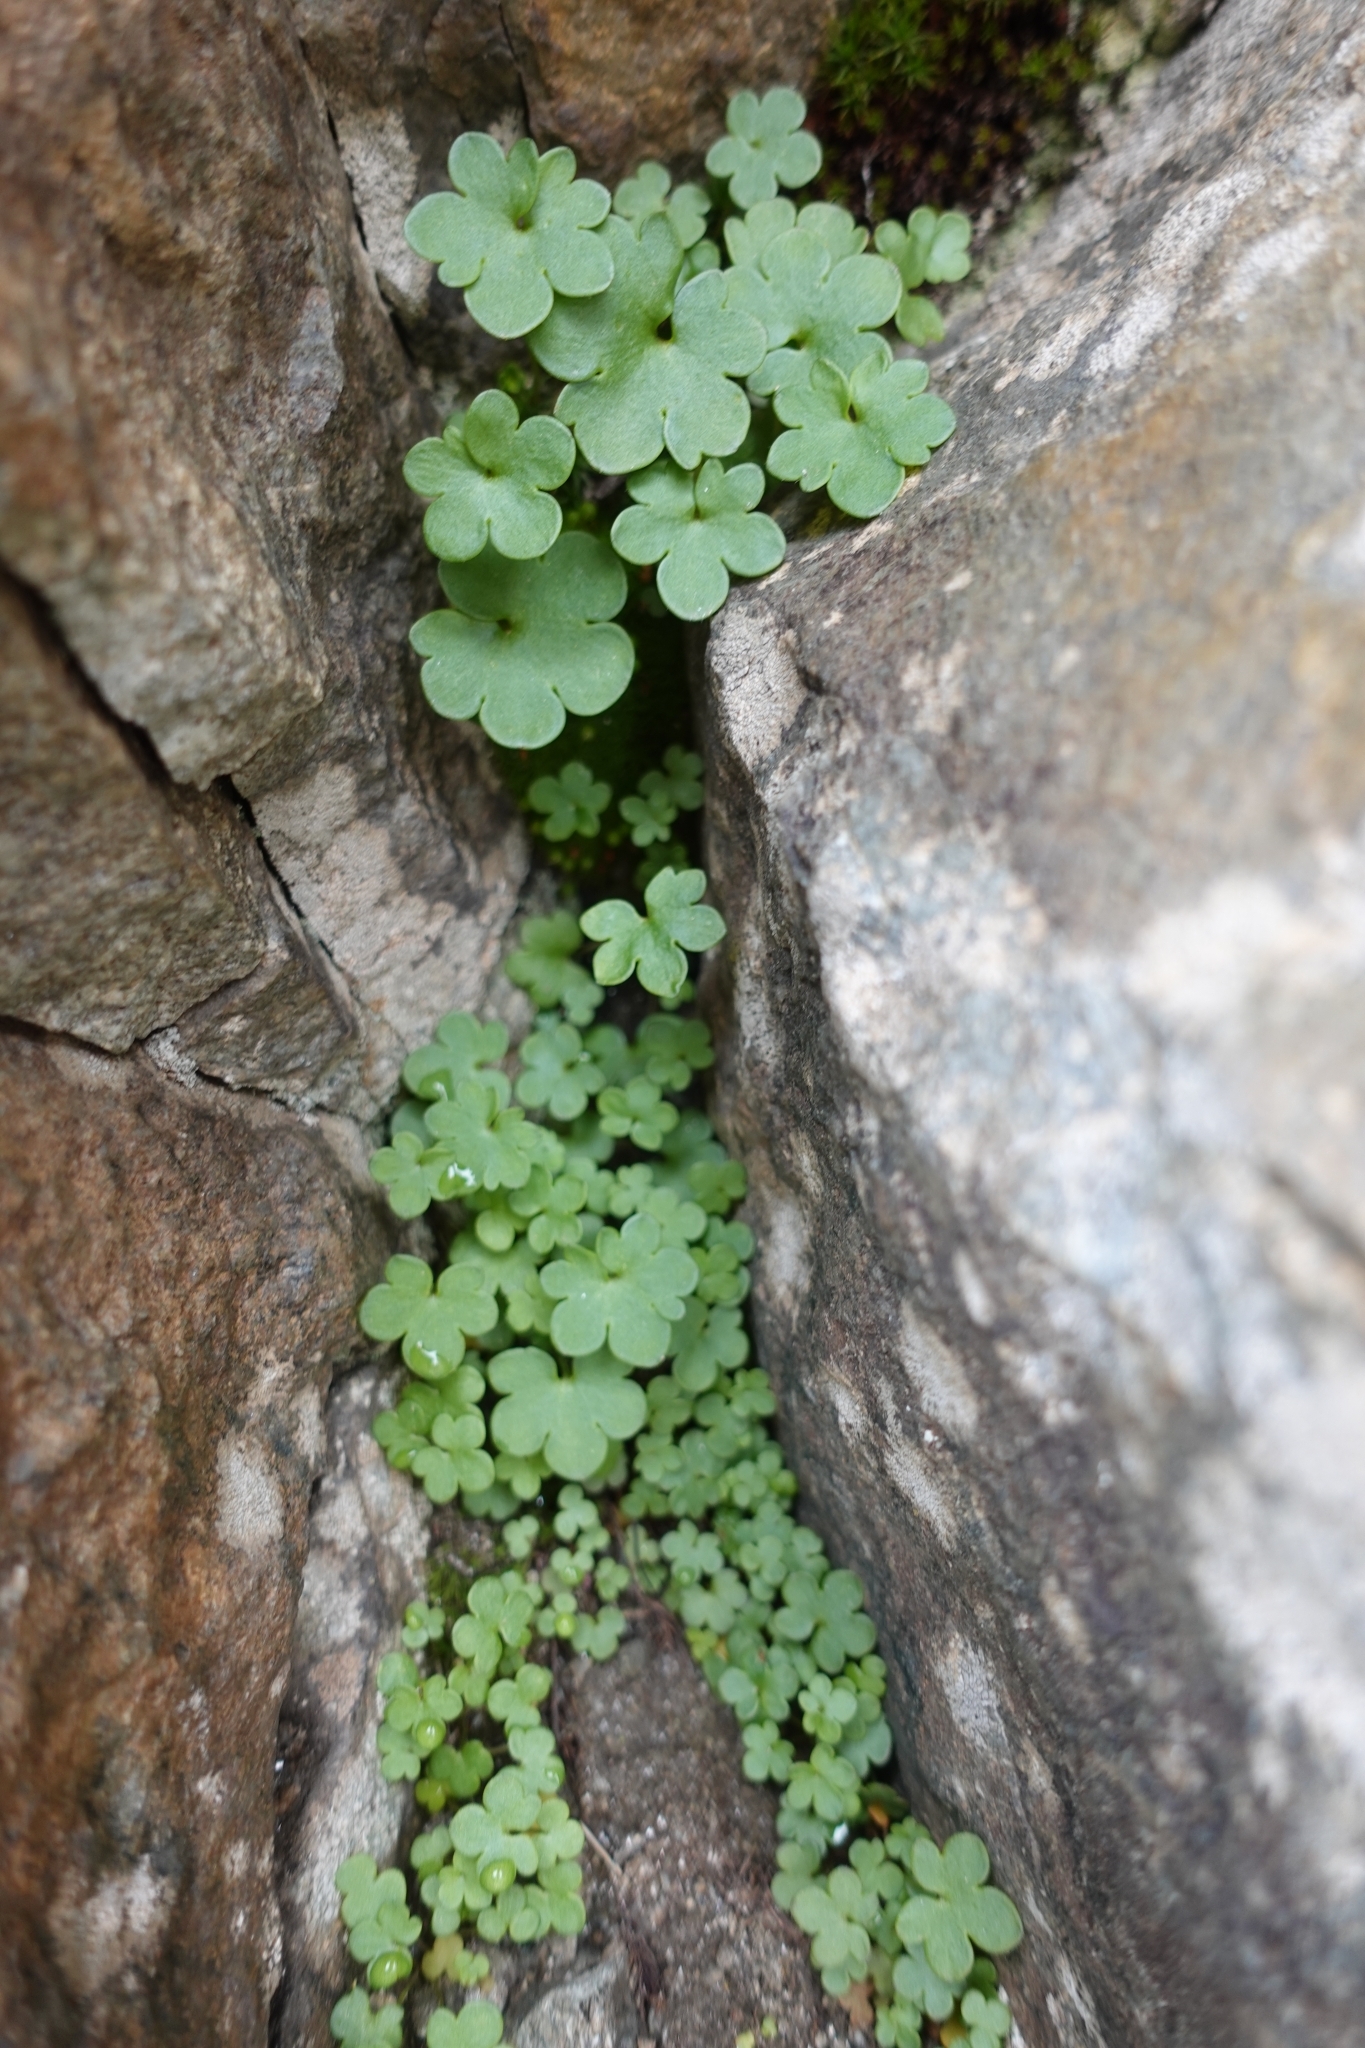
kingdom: Plantae
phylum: Tracheophyta
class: Magnoliopsida
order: Saxifragales
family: Saxifragaceae
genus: Saxifraga
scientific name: Saxifraga sibirica
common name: Siberian saxifrage
